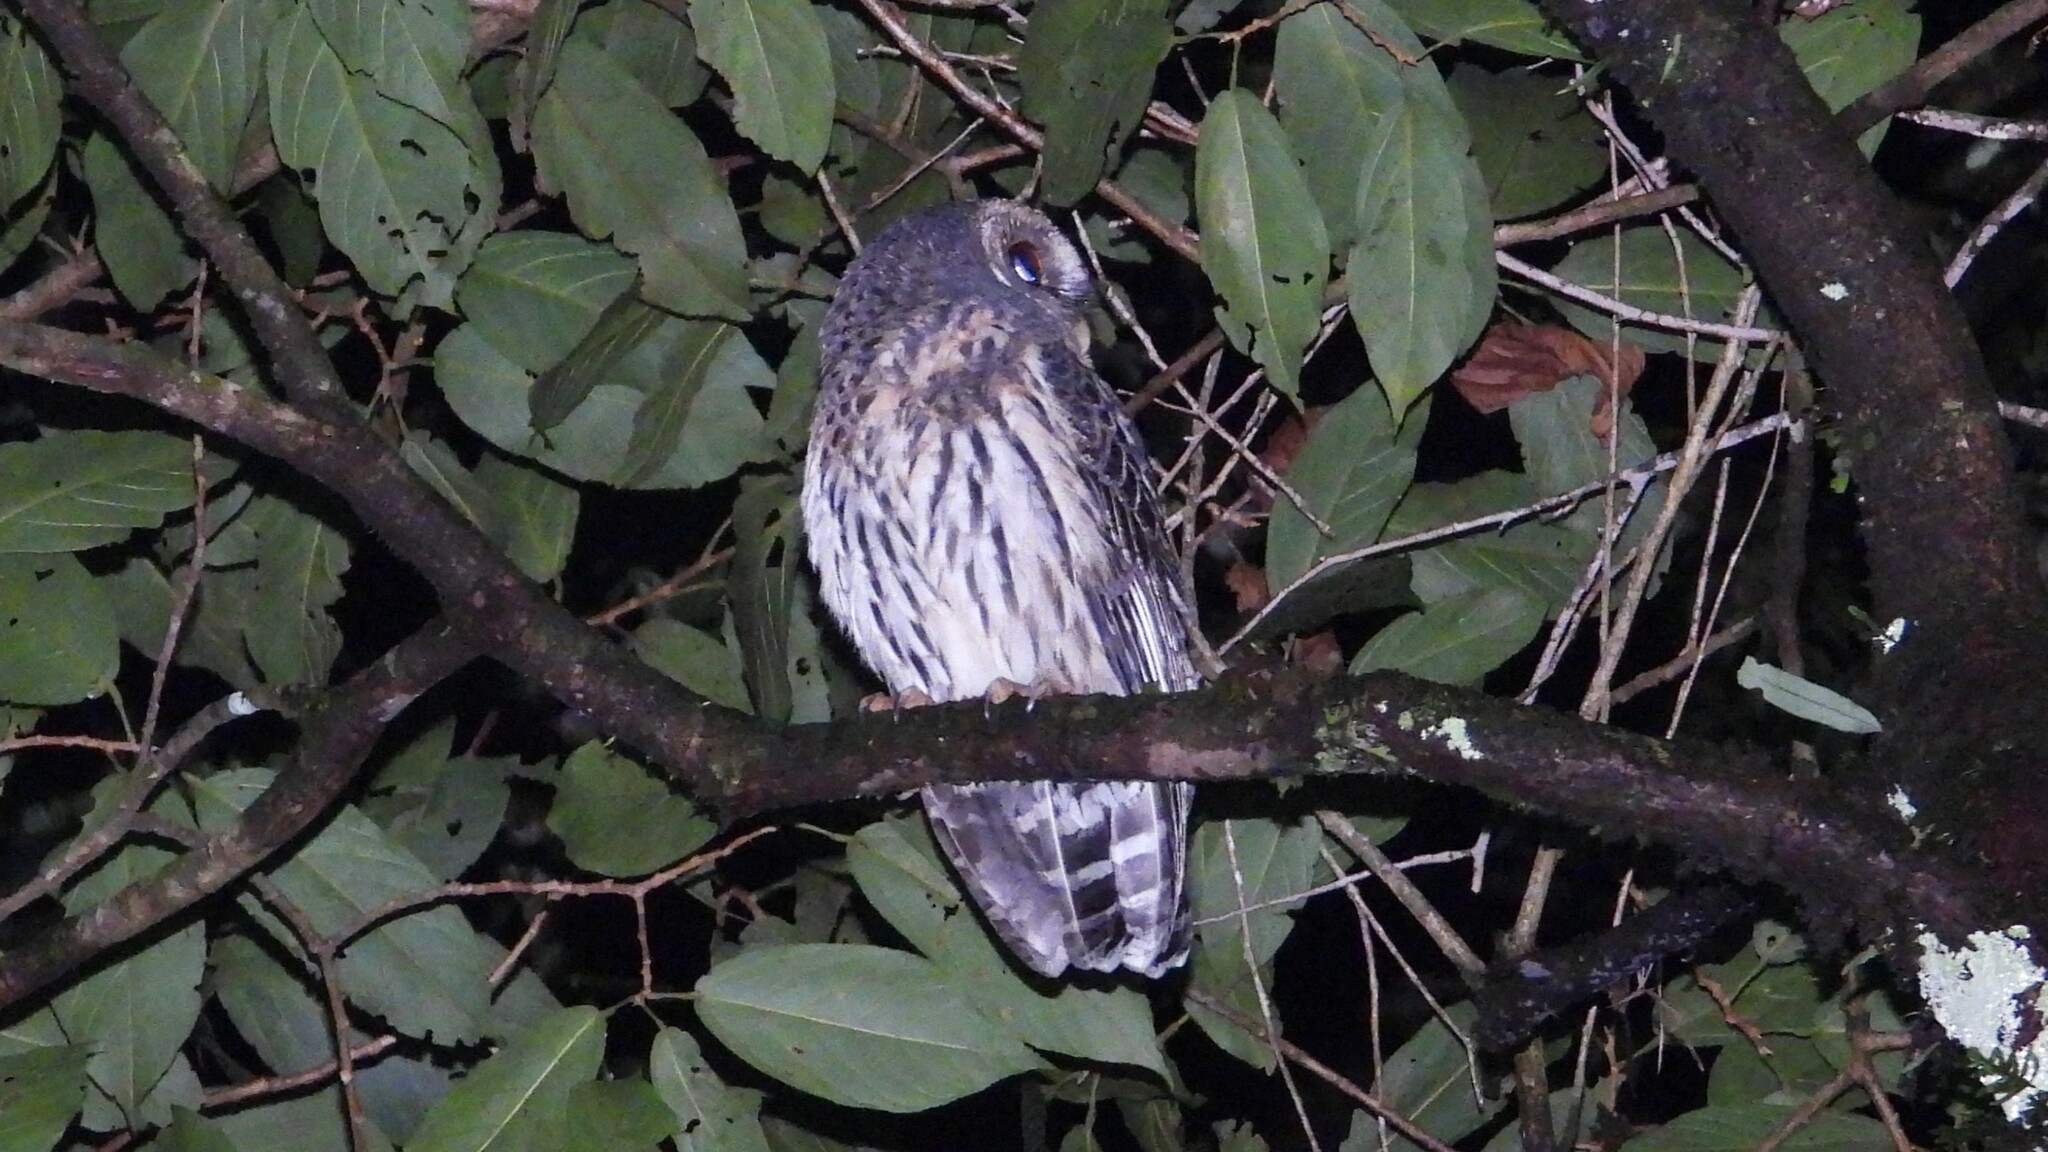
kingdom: Animalia
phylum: Chordata
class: Aves
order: Strigiformes
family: Strigidae
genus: Strix
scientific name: Strix virgata
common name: Mottled owl
